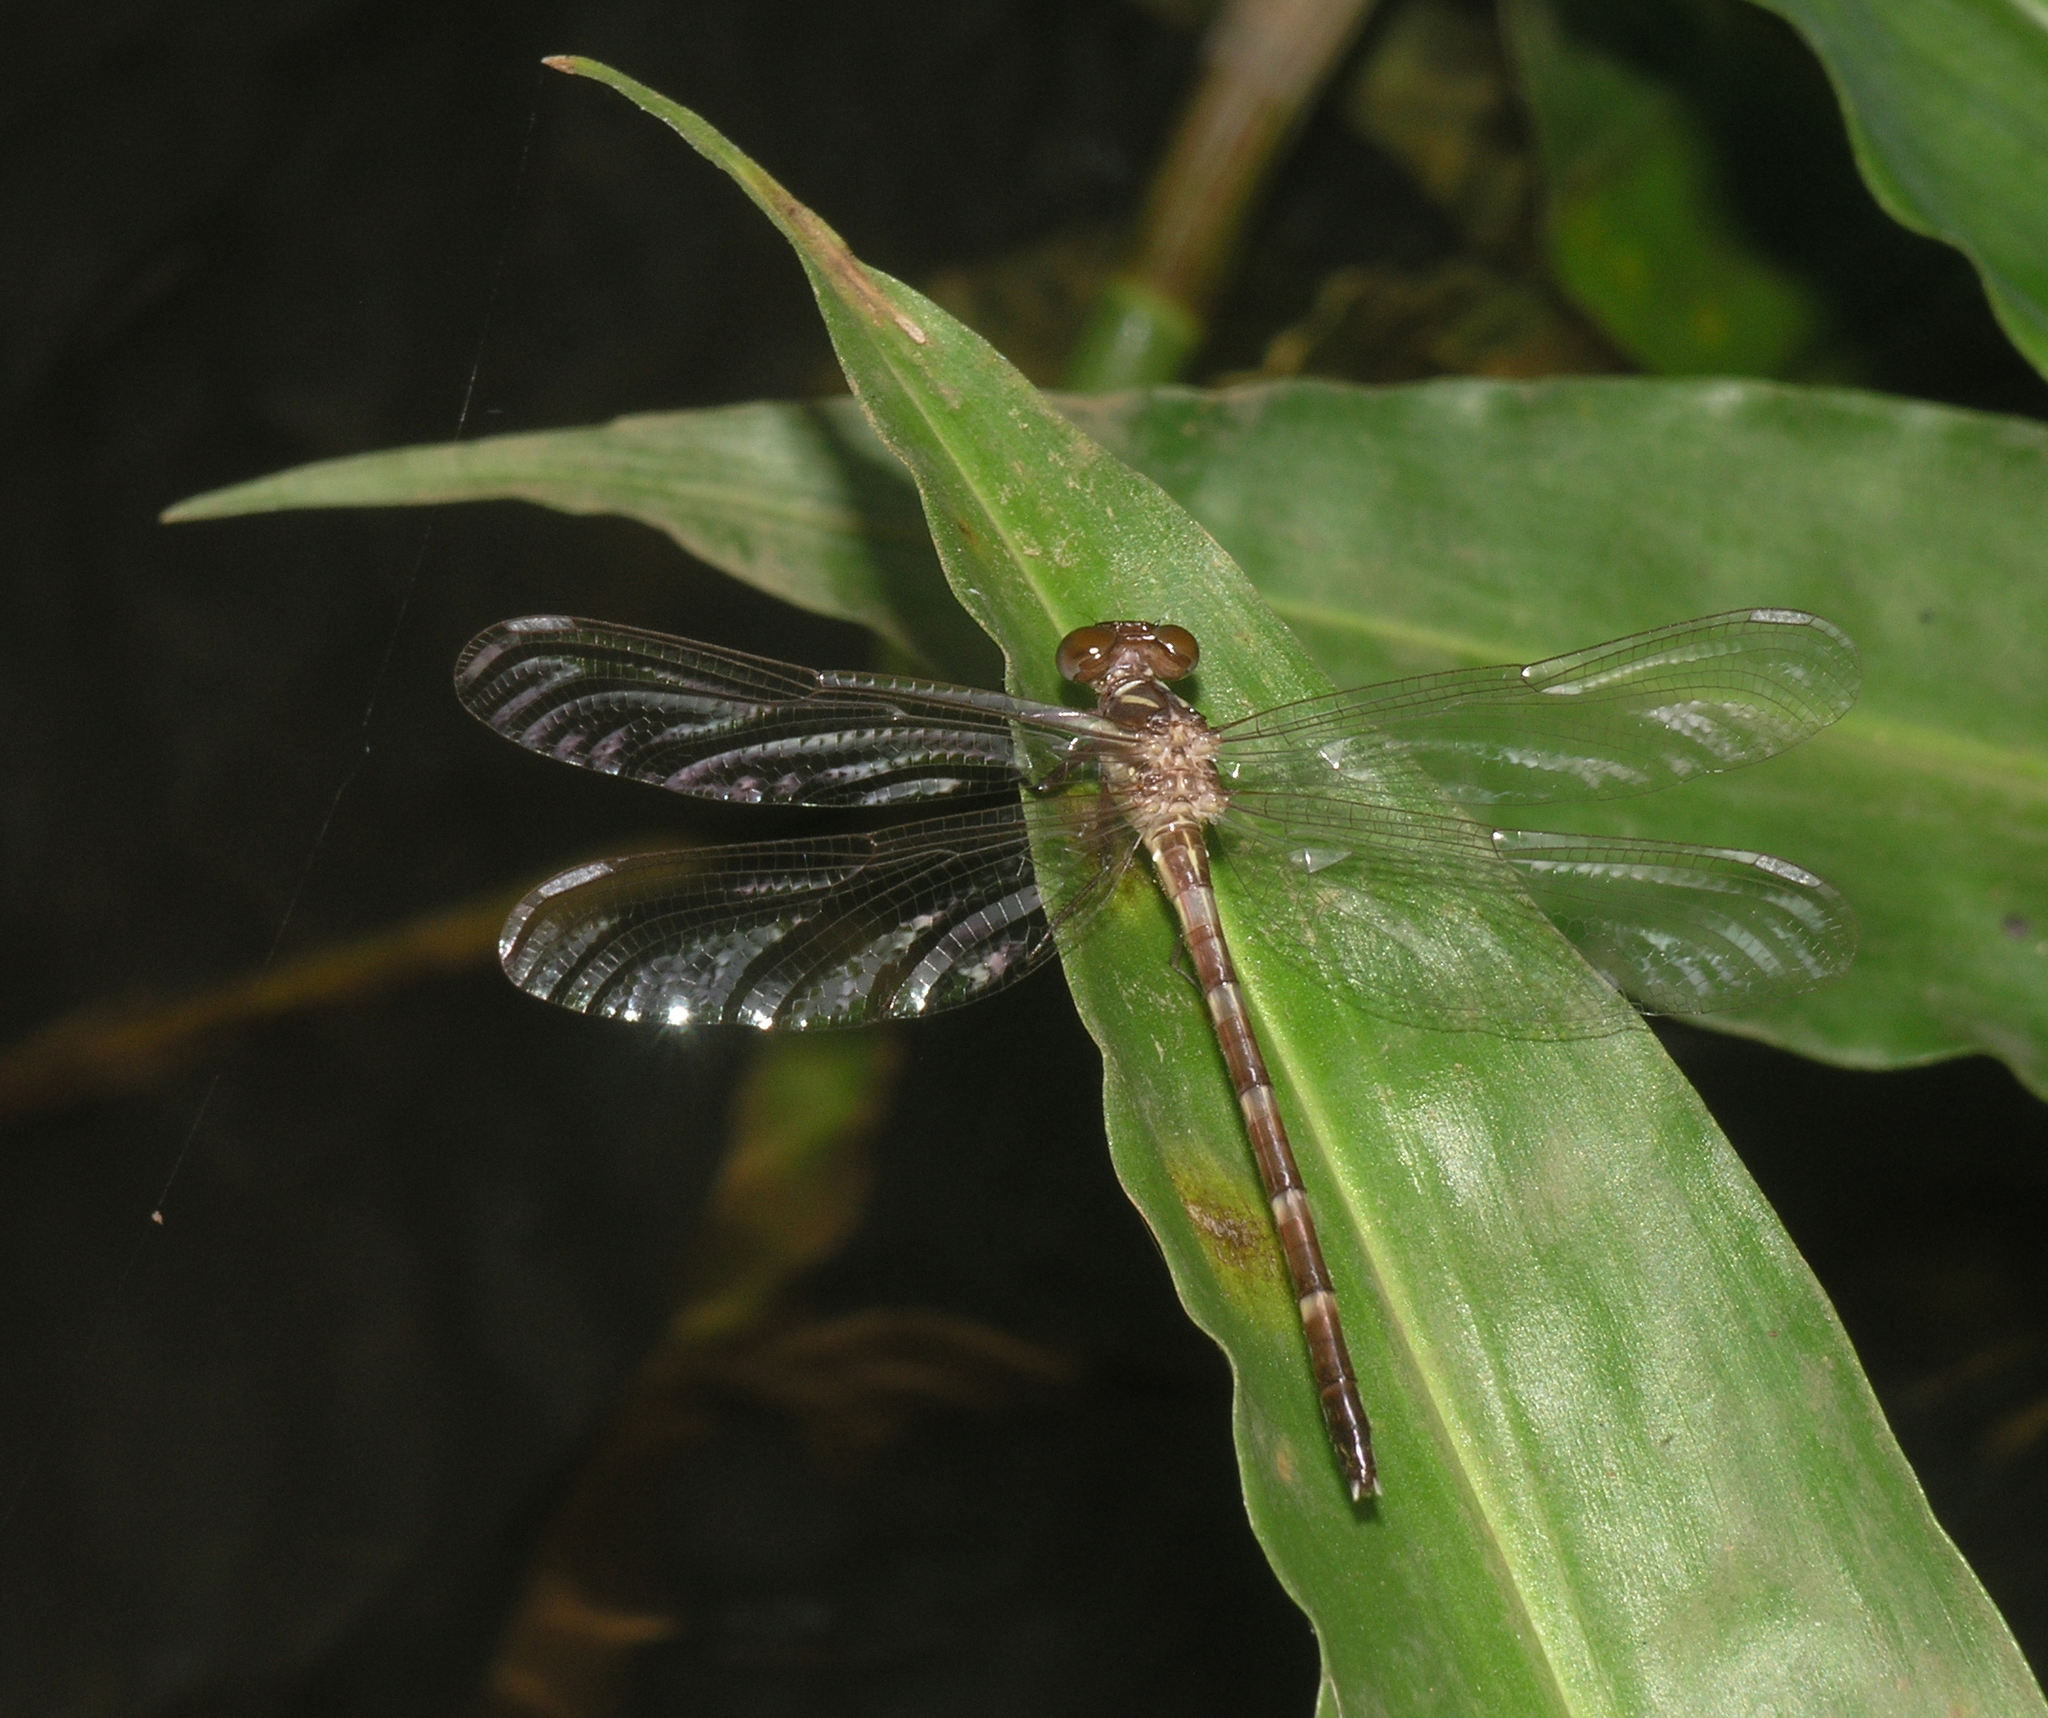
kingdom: Animalia
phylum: Arthropoda
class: Insecta
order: Odonata
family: Gomphidae
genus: Heliogomphus
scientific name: Heliogomphus chaoi
